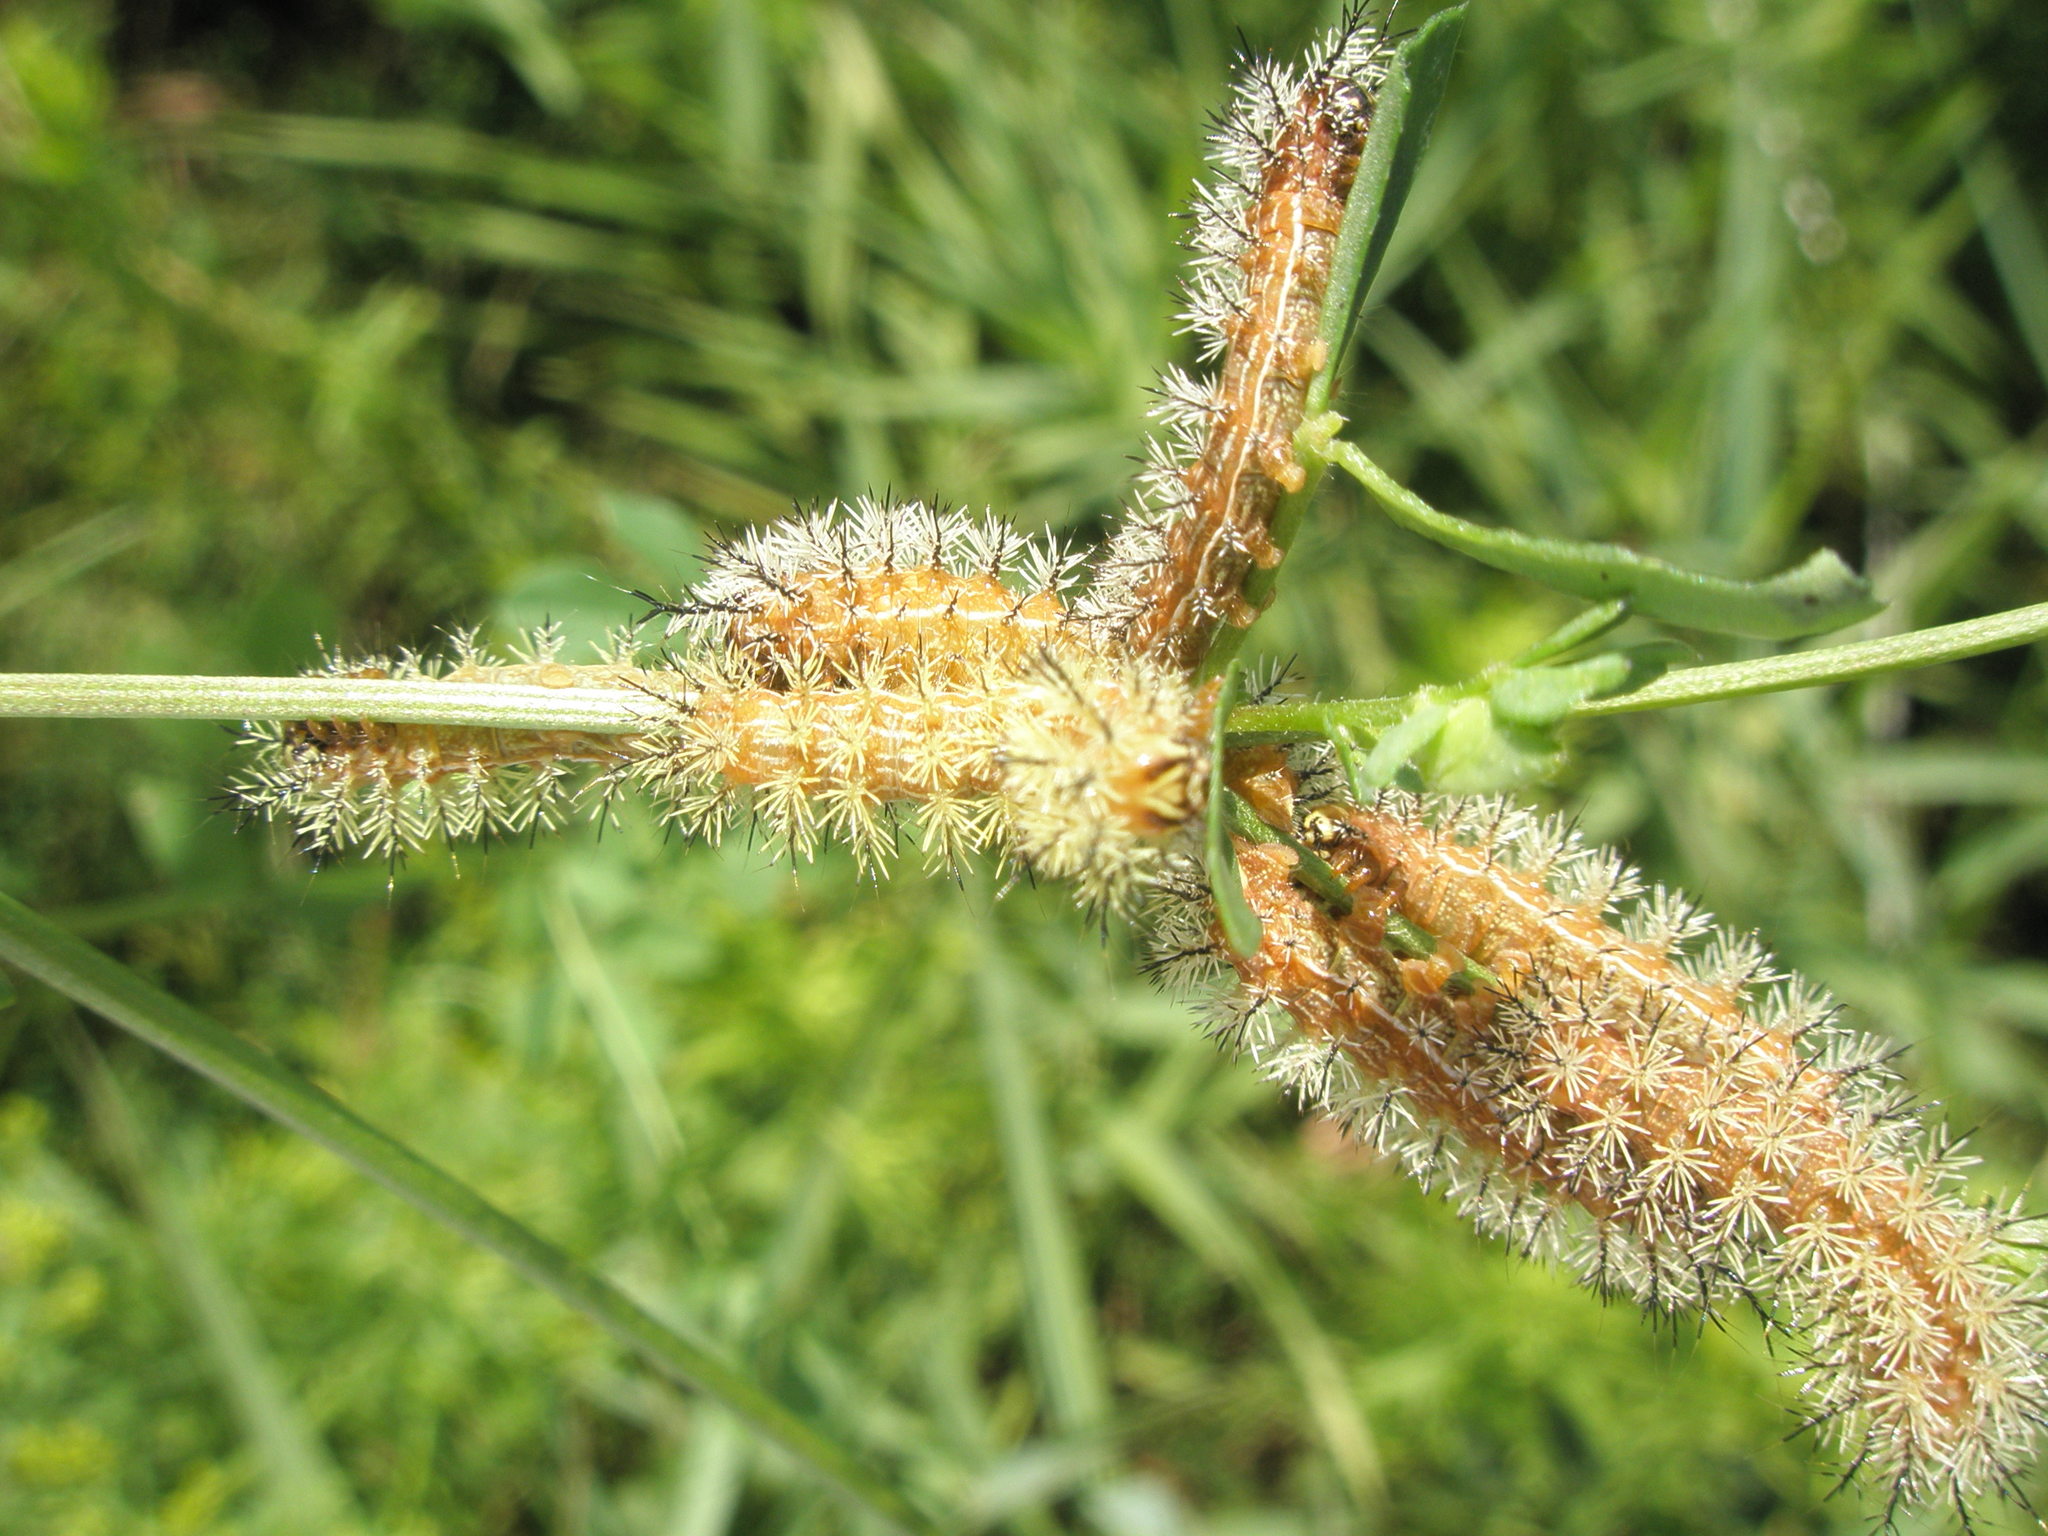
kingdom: Animalia
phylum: Arthropoda
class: Insecta
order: Lepidoptera
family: Saturniidae
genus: Automeris
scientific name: Automeris io
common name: Io moth
